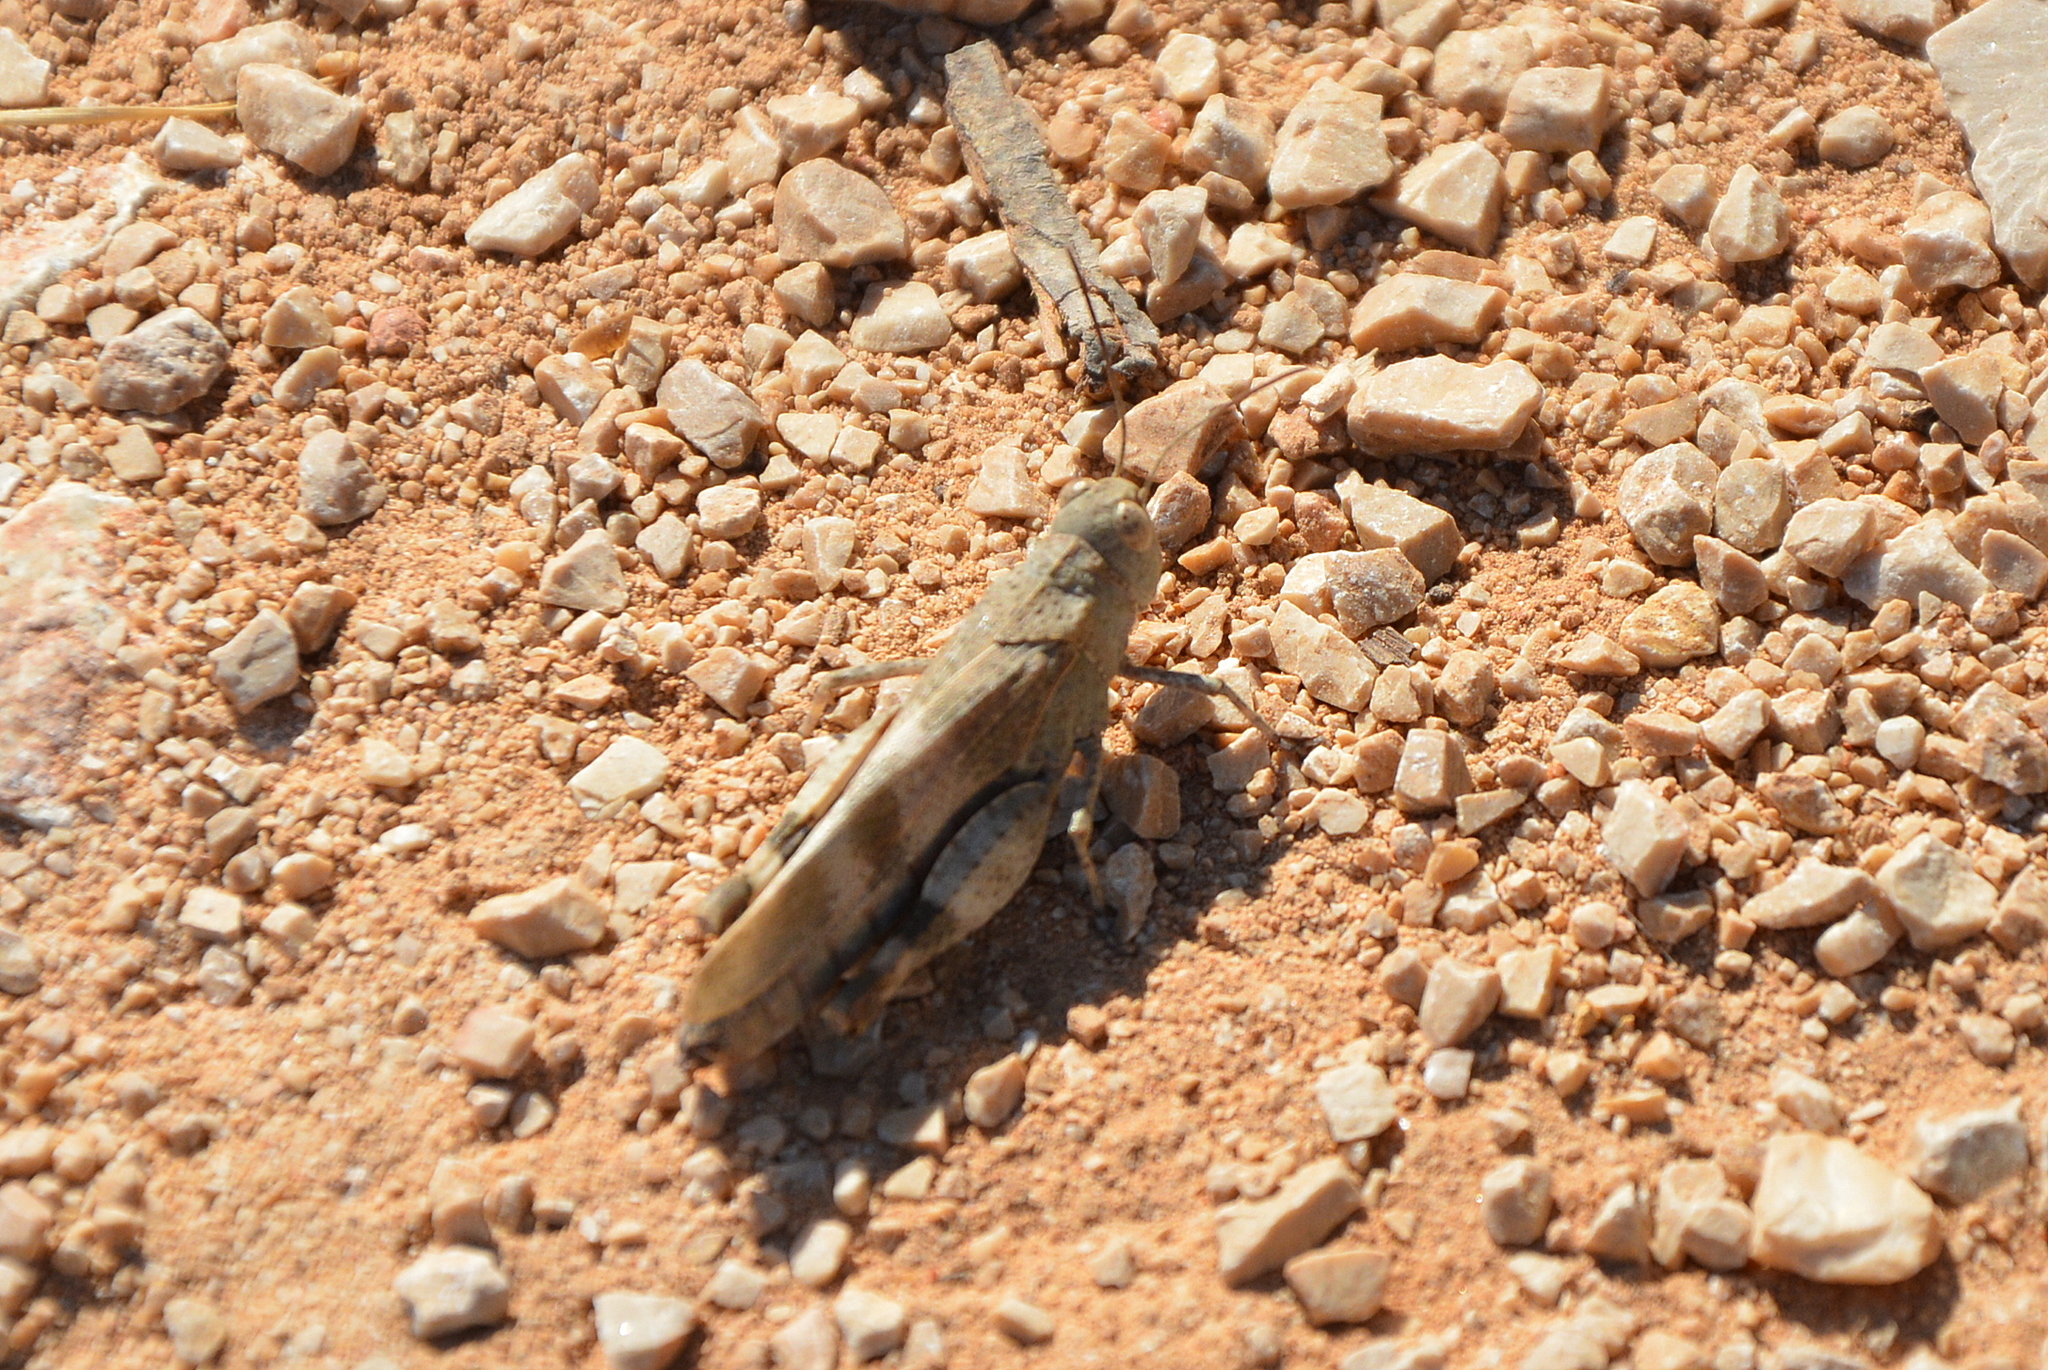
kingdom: Animalia
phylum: Arthropoda
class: Insecta
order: Orthoptera
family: Acrididae
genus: Oedipoda
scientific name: Oedipoda germanica
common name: Red band-winged grasshopper
